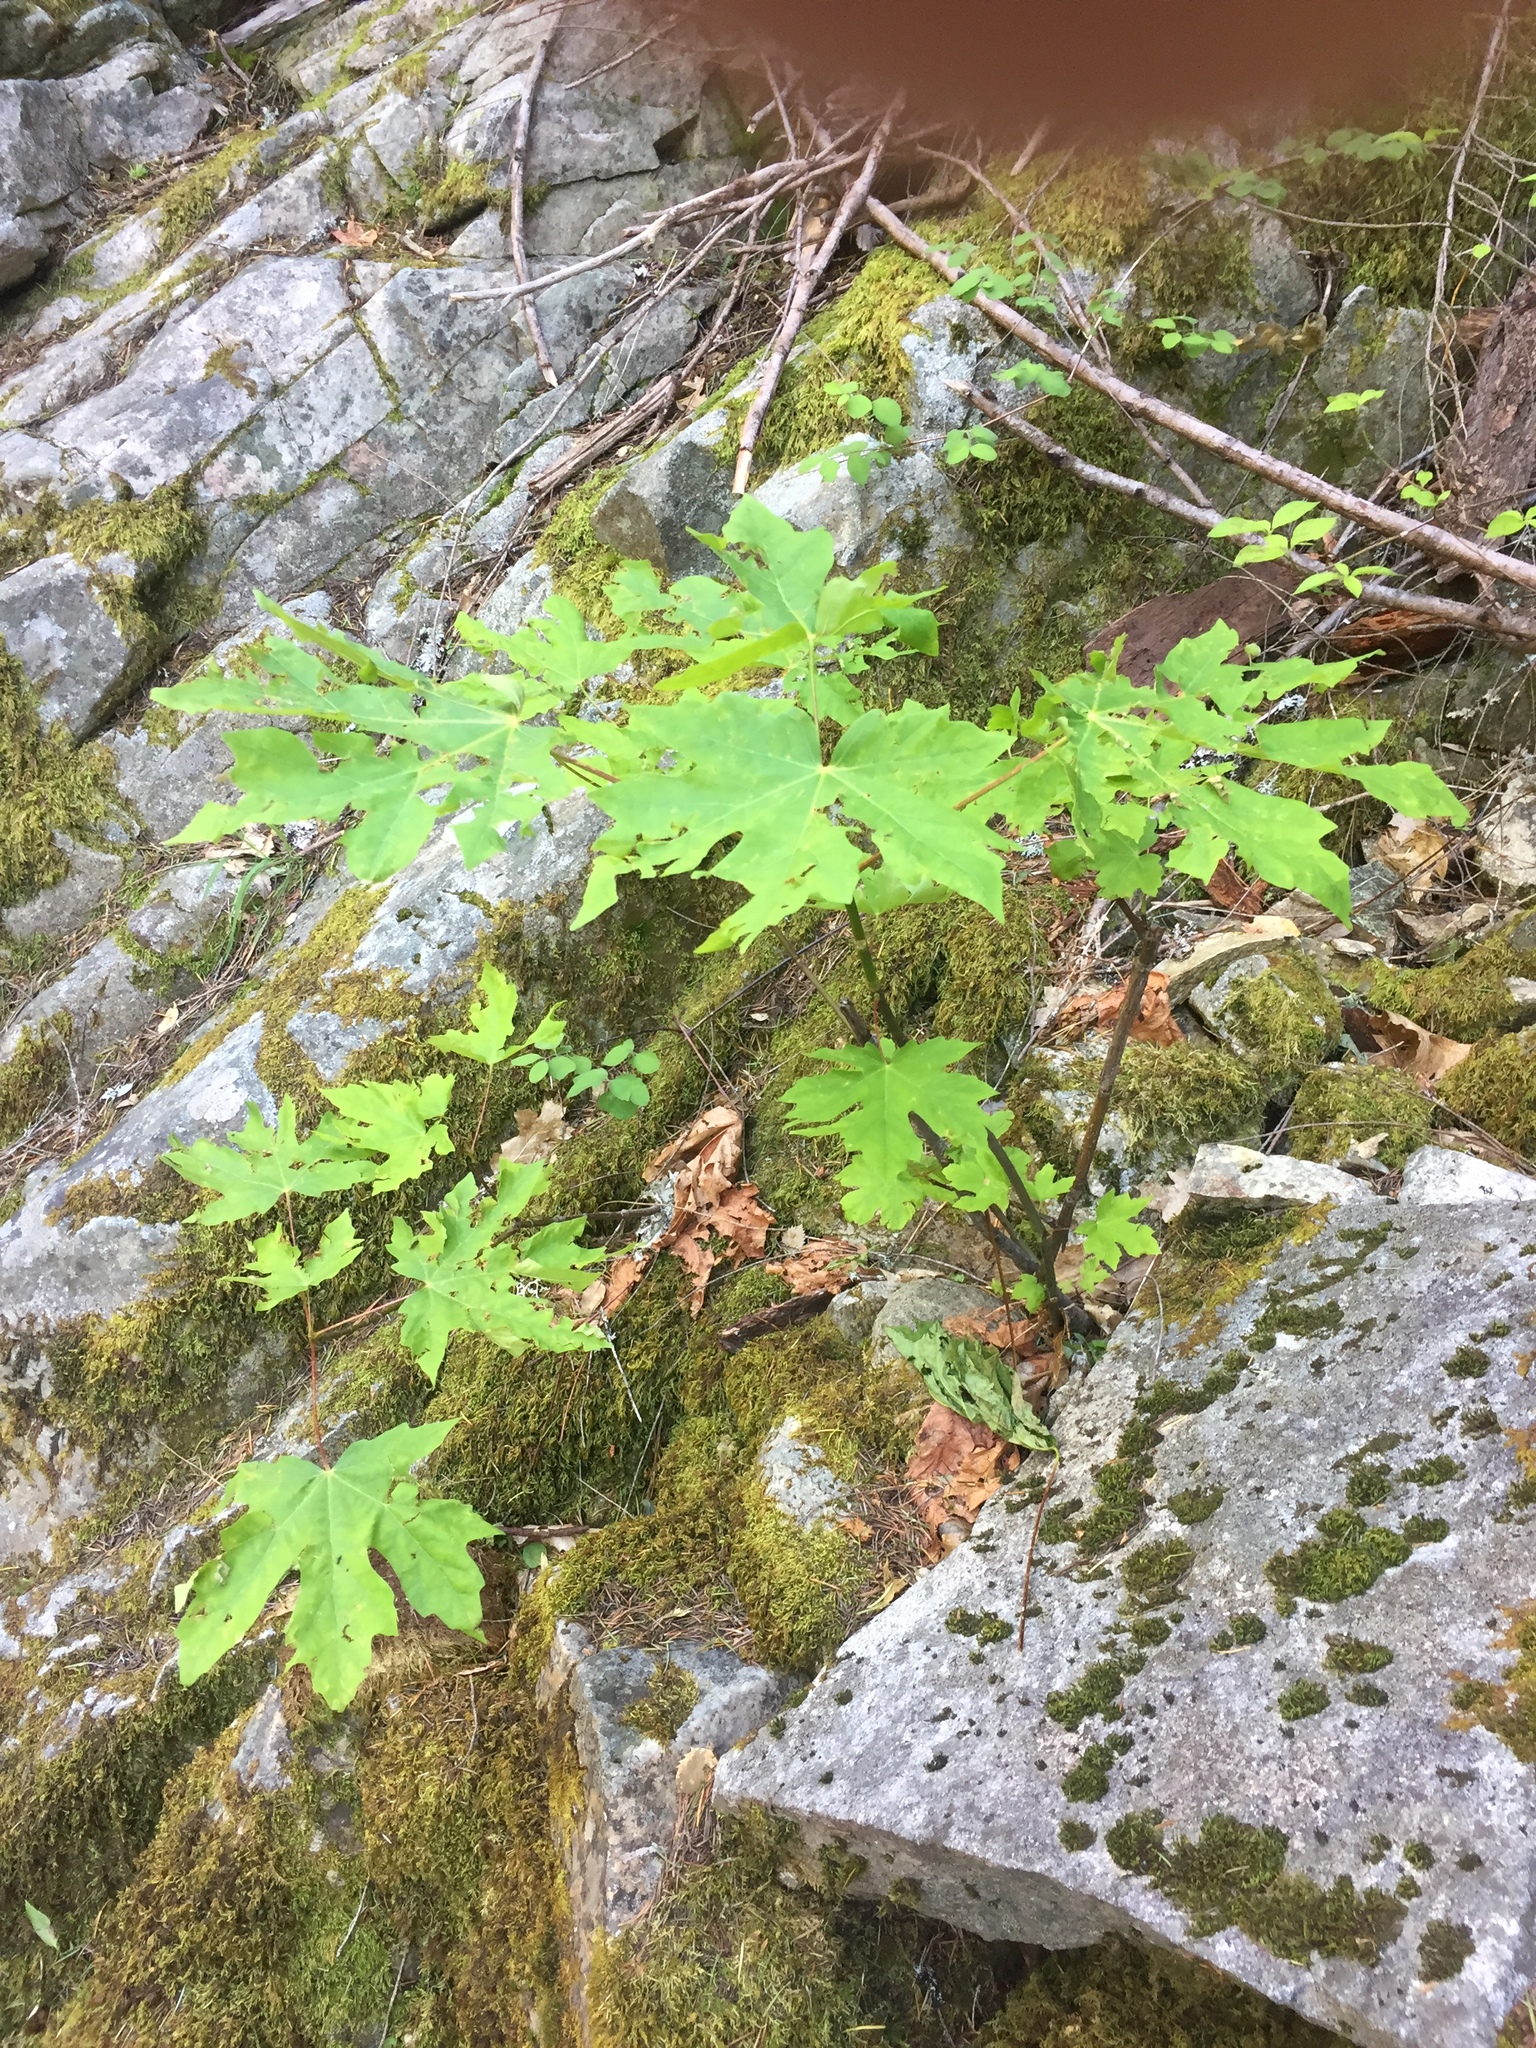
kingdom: Plantae
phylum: Tracheophyta
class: Magnoliopsida
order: Sapindales
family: Sapindaceae
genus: Acer
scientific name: Acer macrophyllum
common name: Oregon maple
